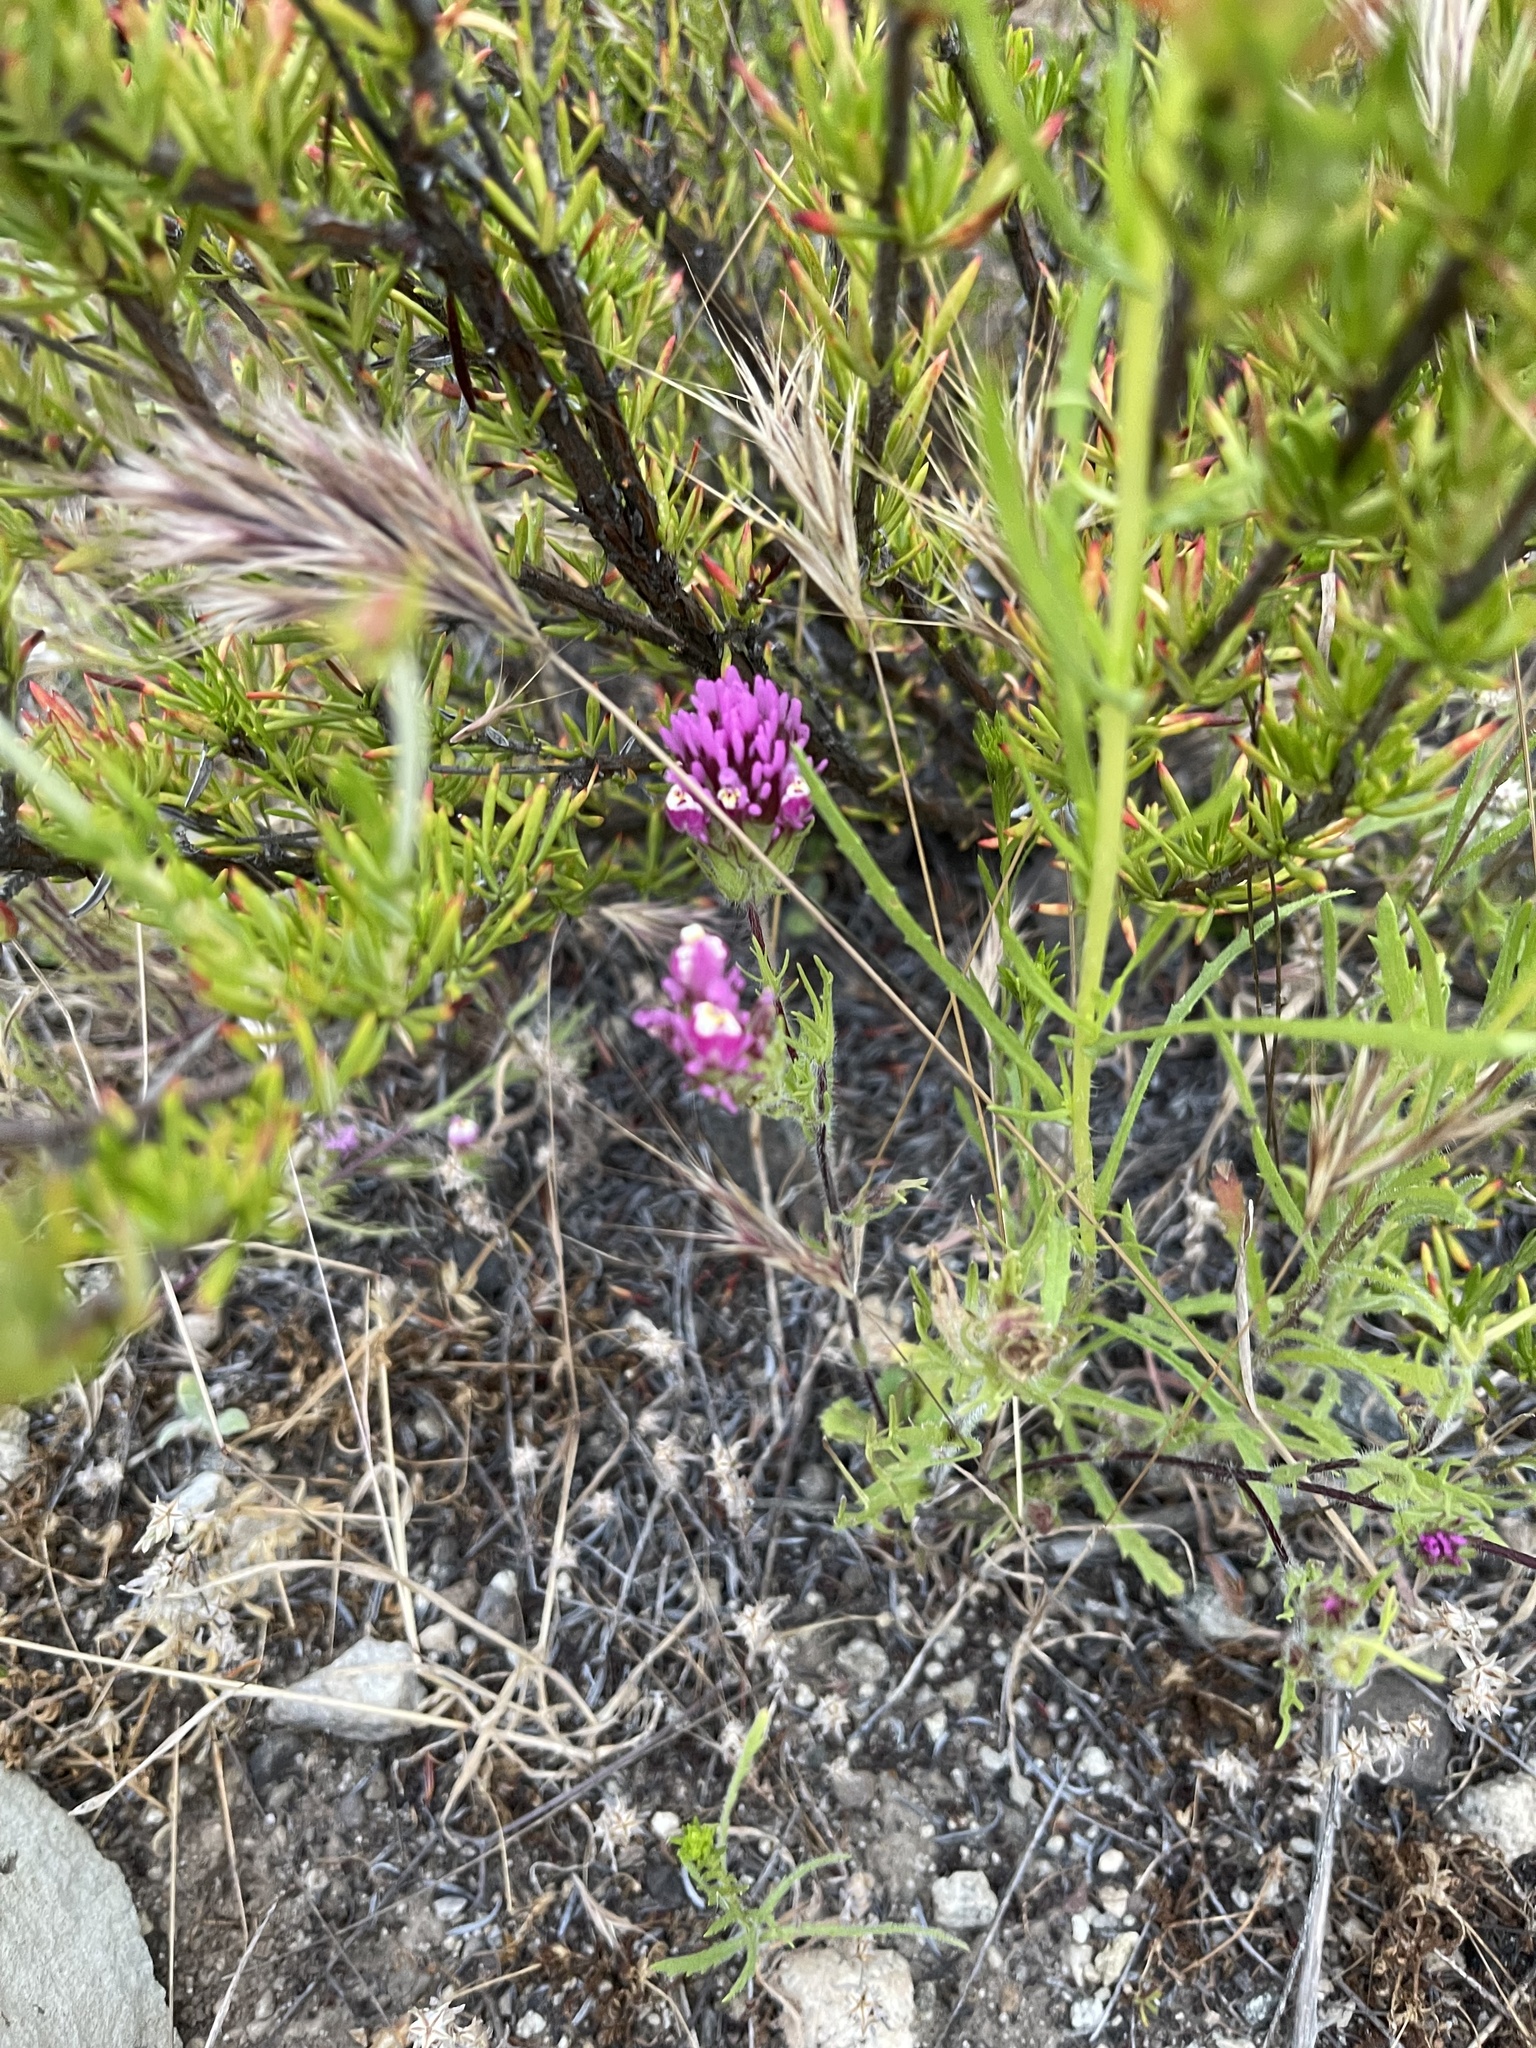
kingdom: Plantae
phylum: Tracheophyta
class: Magnoliopsida
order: Lamiales
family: Orobanchaceae
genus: Castilleja
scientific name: Castilleja exserta
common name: Purple owl-clover
